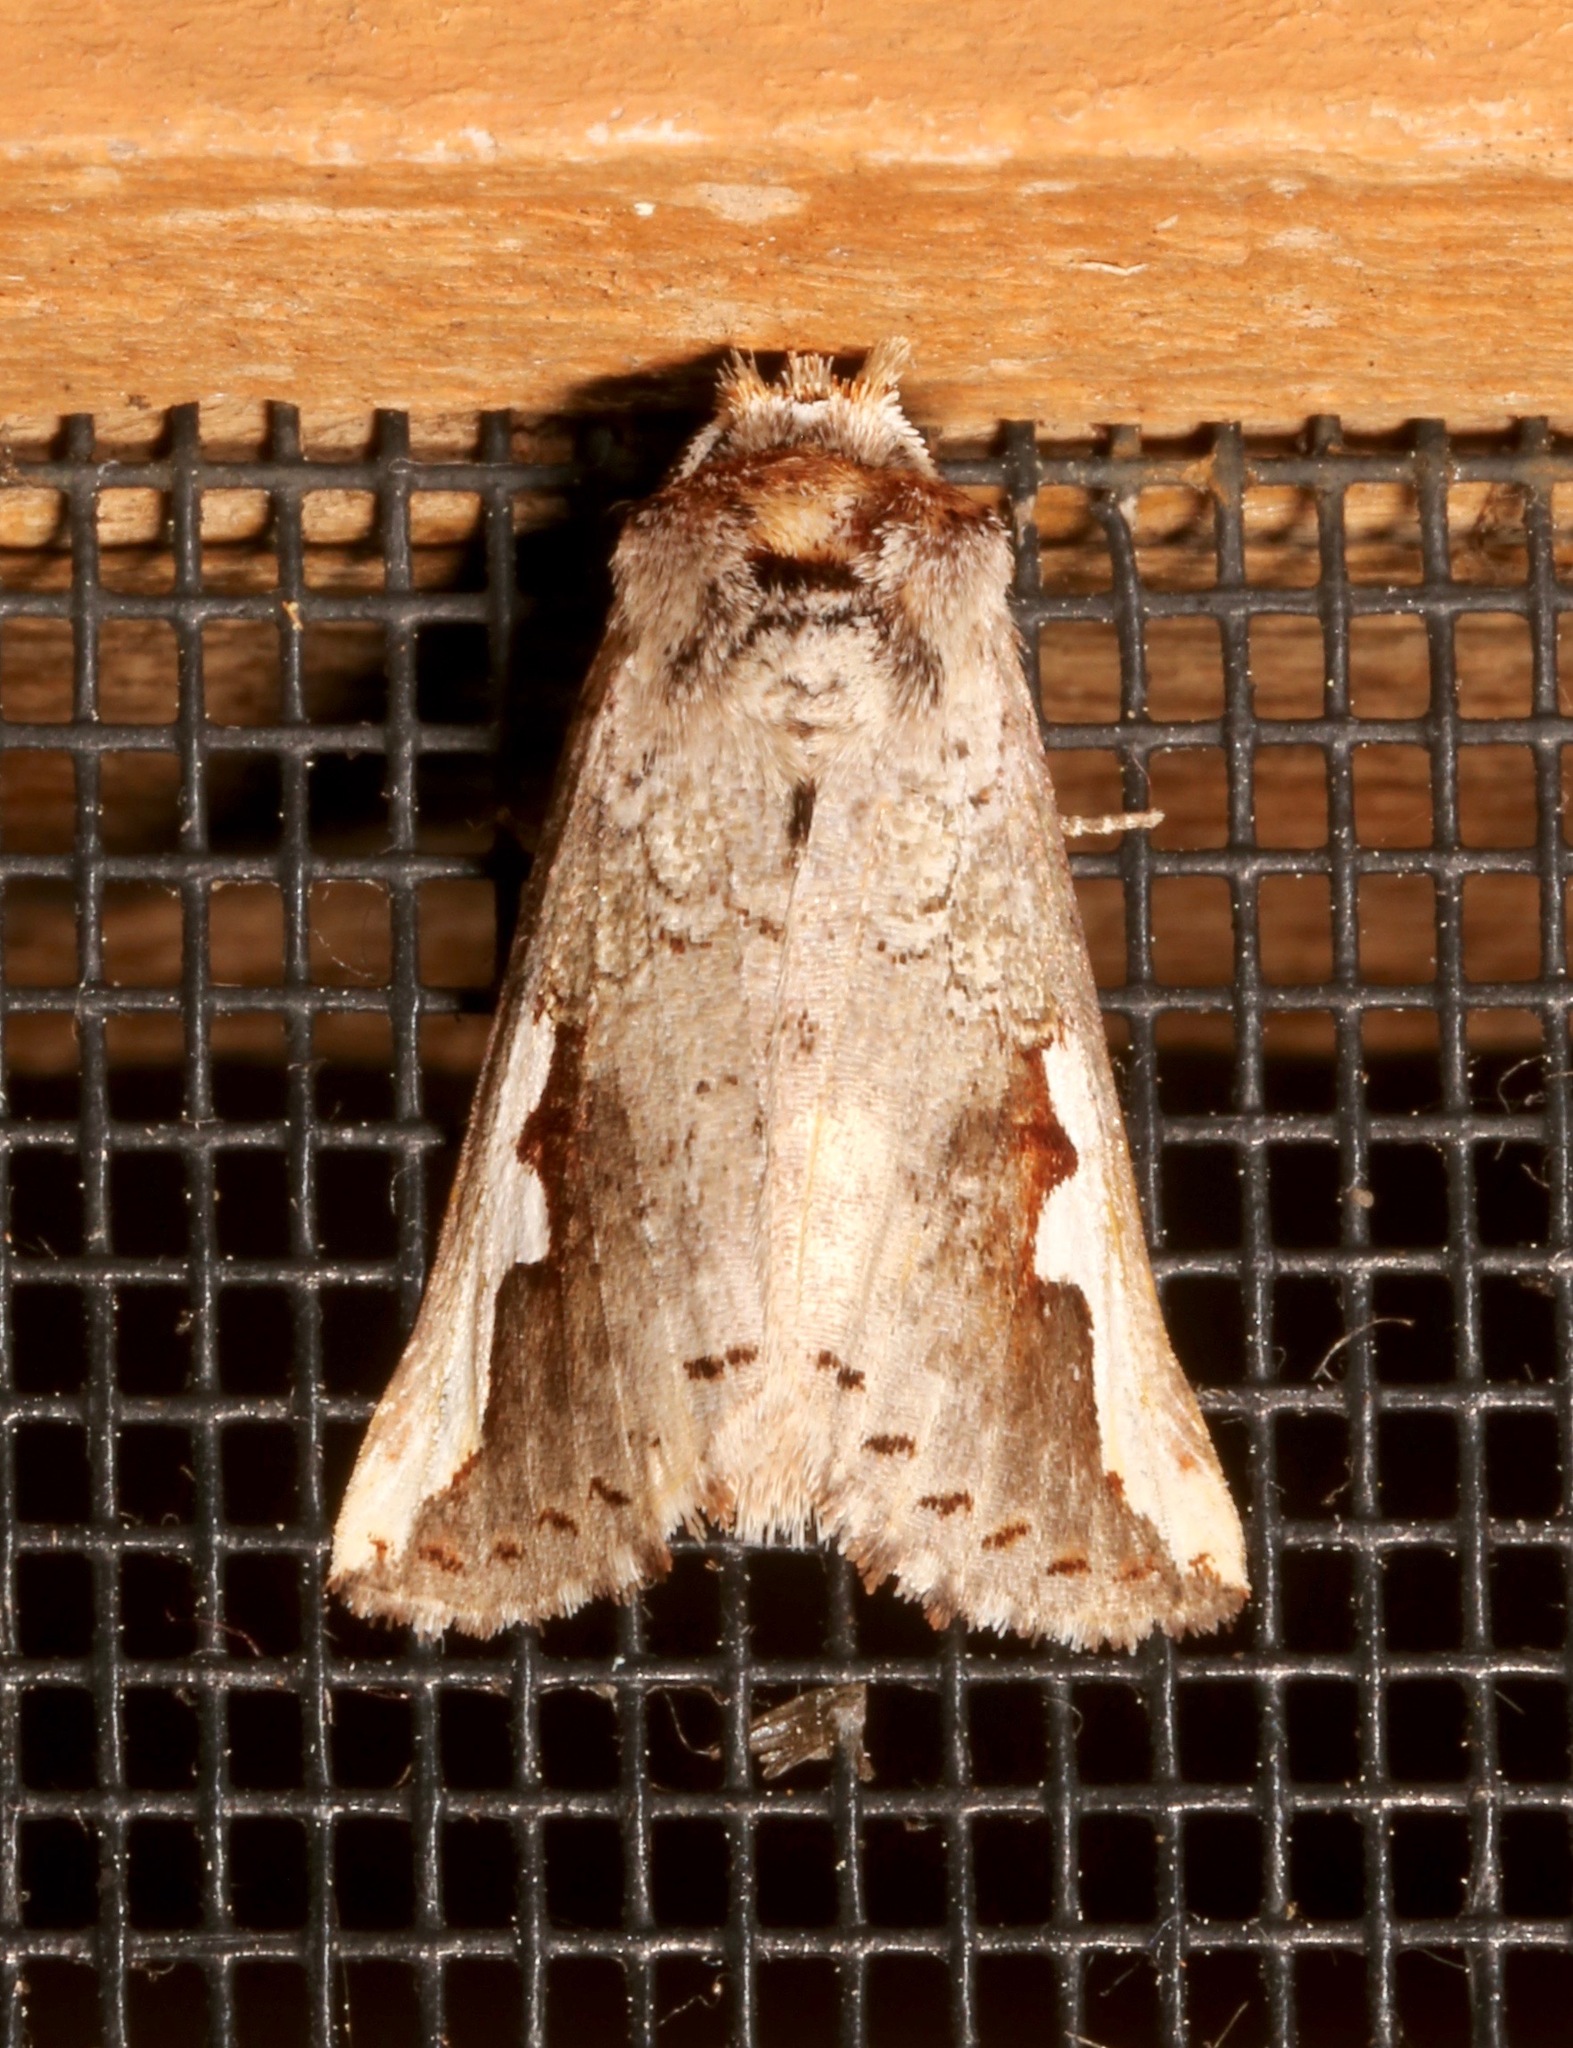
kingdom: Animalia
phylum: Arthropoda
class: Insecta
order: Lepidoptera
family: Notodontidae
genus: Symmerista
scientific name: Symmerista albifrons
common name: White-headed prominent
